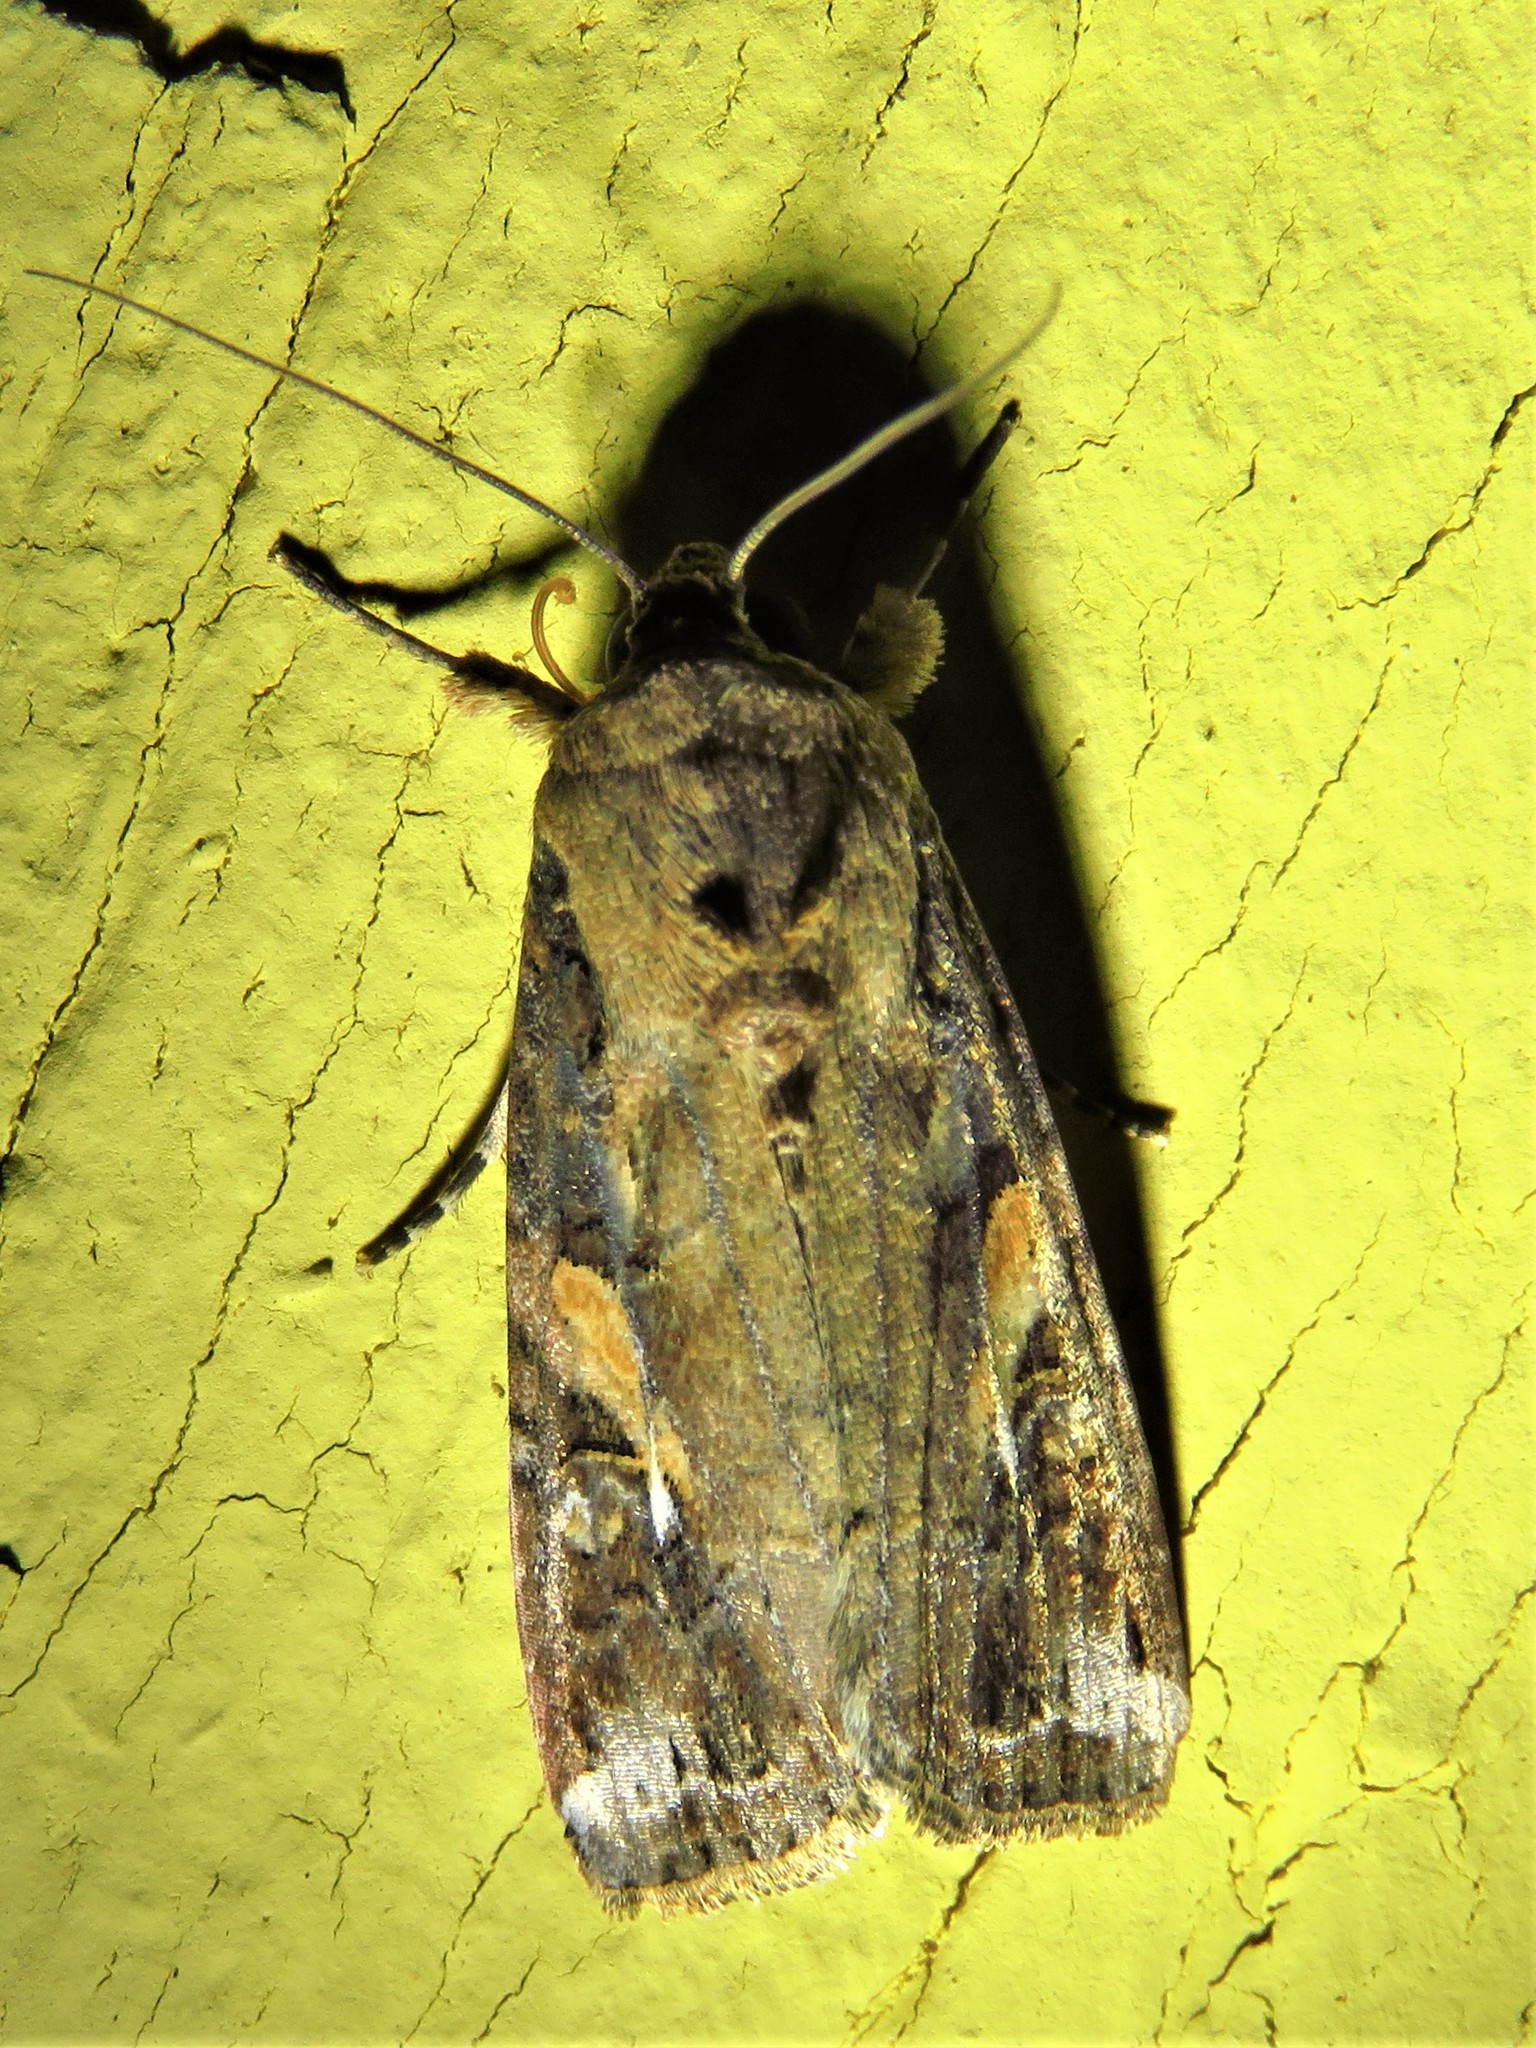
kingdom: Animalia
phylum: Arthropoda
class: Insecta
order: Lepidoptera
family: Noctuidae
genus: Spodoptera
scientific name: Spodoptera frugiperda
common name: Fall armyworm
